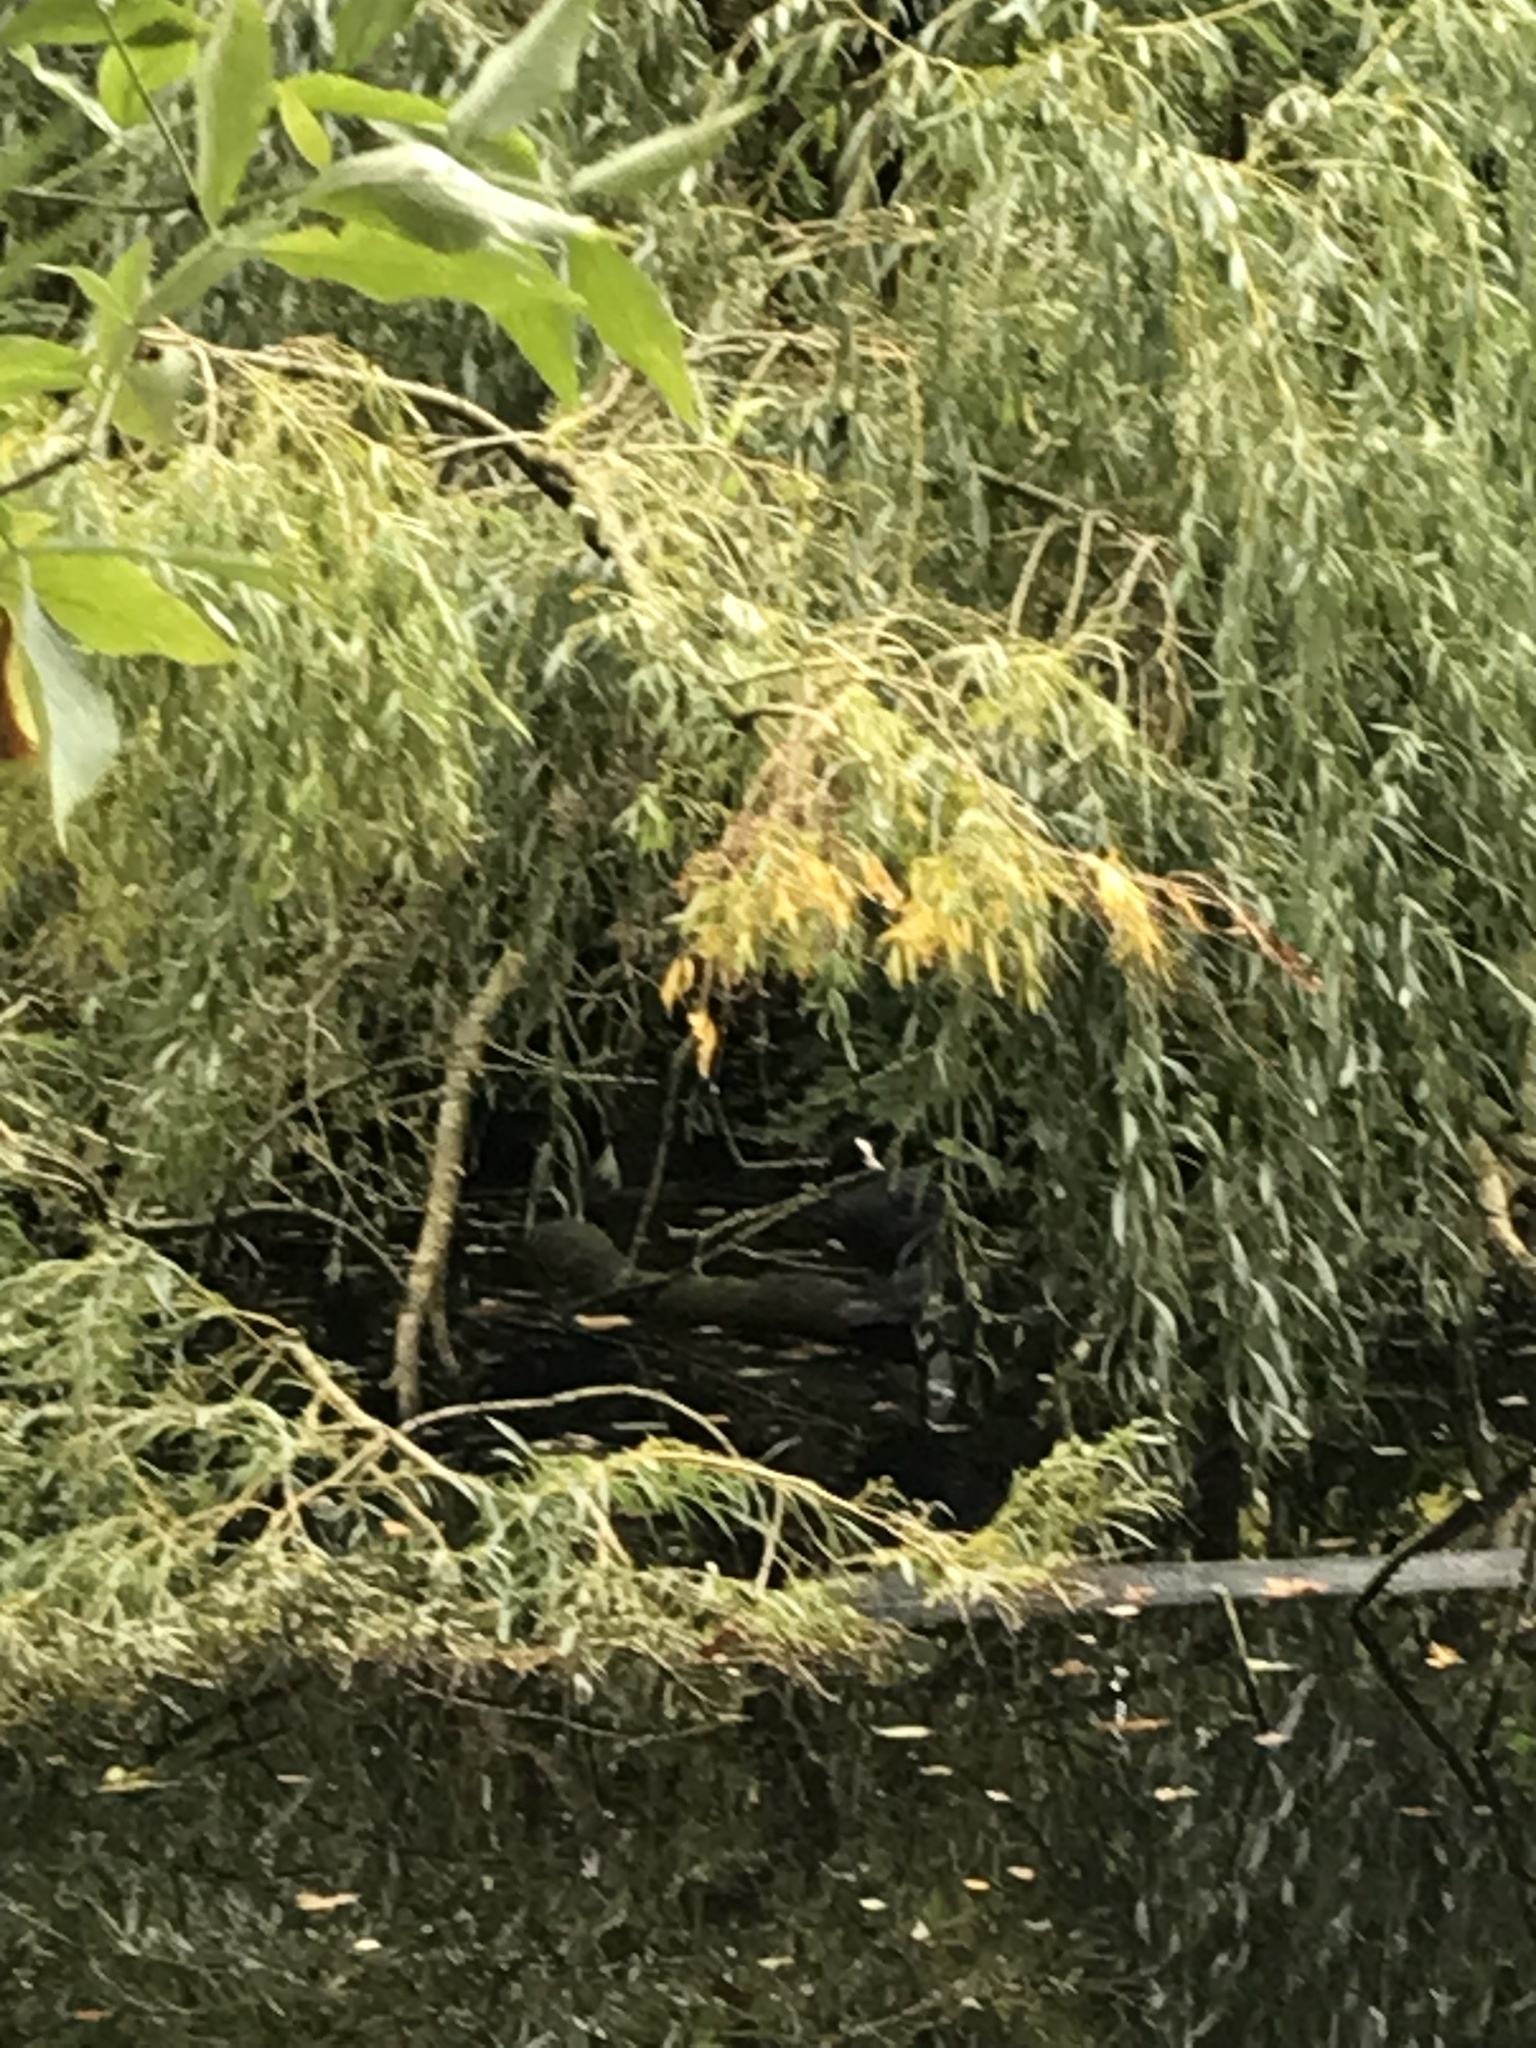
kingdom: Animalia
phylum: Chordata
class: Aves
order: Gruiformes
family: Rallidae
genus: Fulica
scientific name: Fulica atra
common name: Eurasian coot
